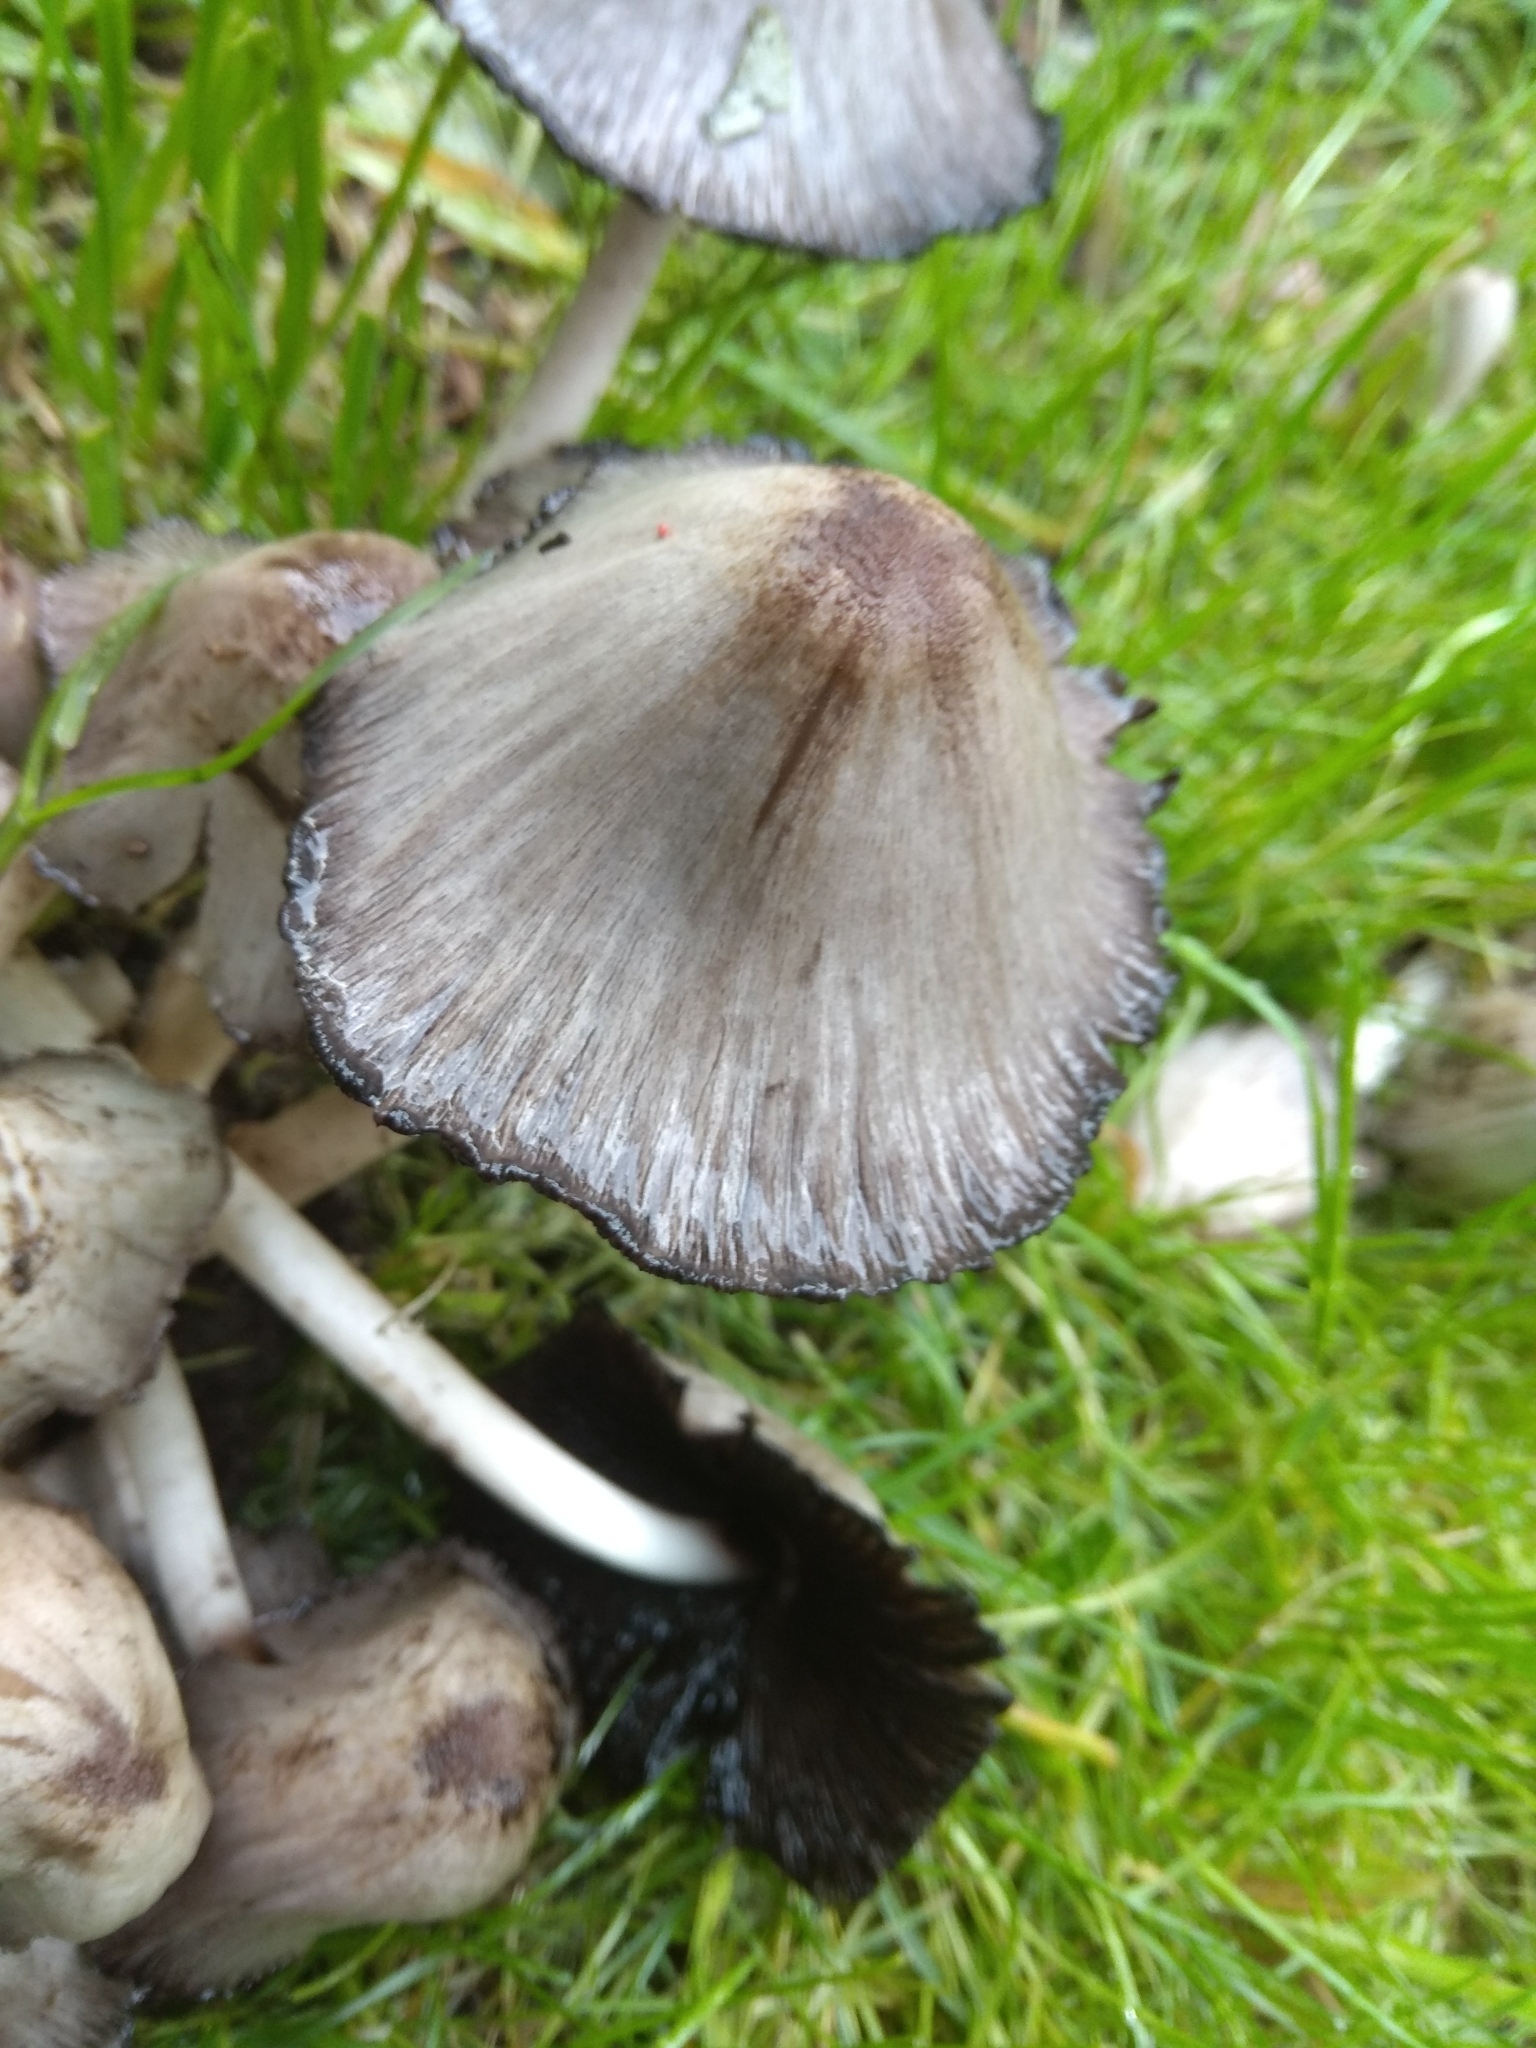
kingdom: Fungi
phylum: Basidiomycota
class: Agaricomycetes
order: Agaricales
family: Psathyrellaceae
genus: Coprinopsis
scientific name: Coprinopsis atramentaria
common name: Common ink-cap
